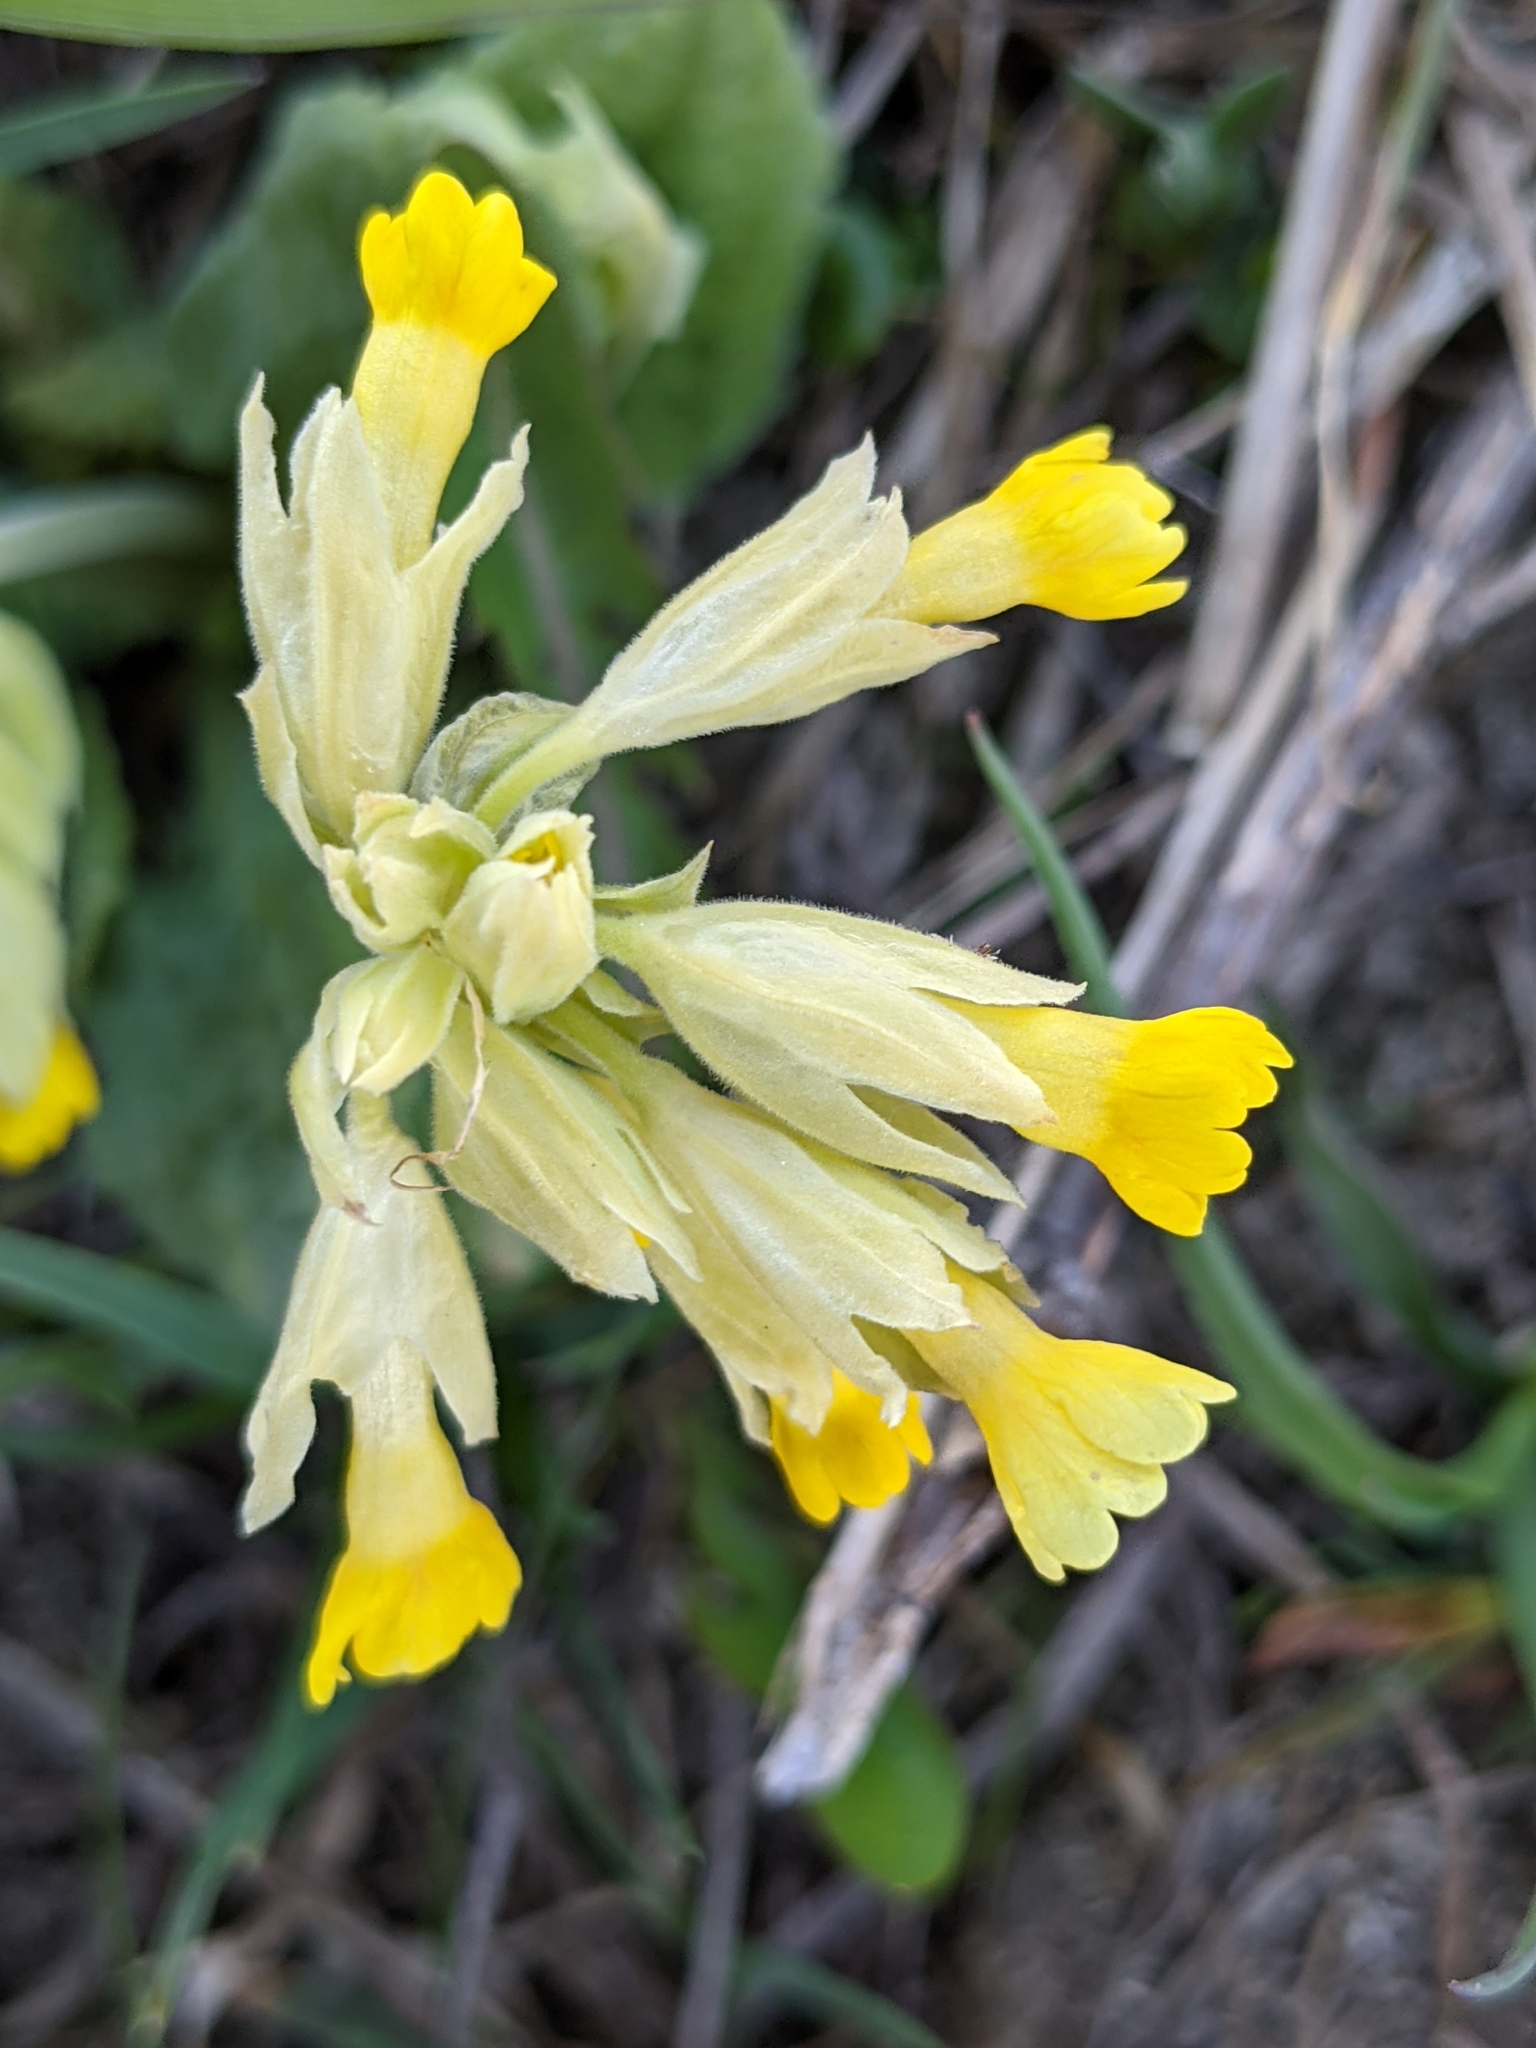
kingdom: Plantae
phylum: Tracheophyta
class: Magnoliopsida
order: Ericales
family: Primulaceae
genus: Primula
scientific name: Primula veris
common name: Cowslip
